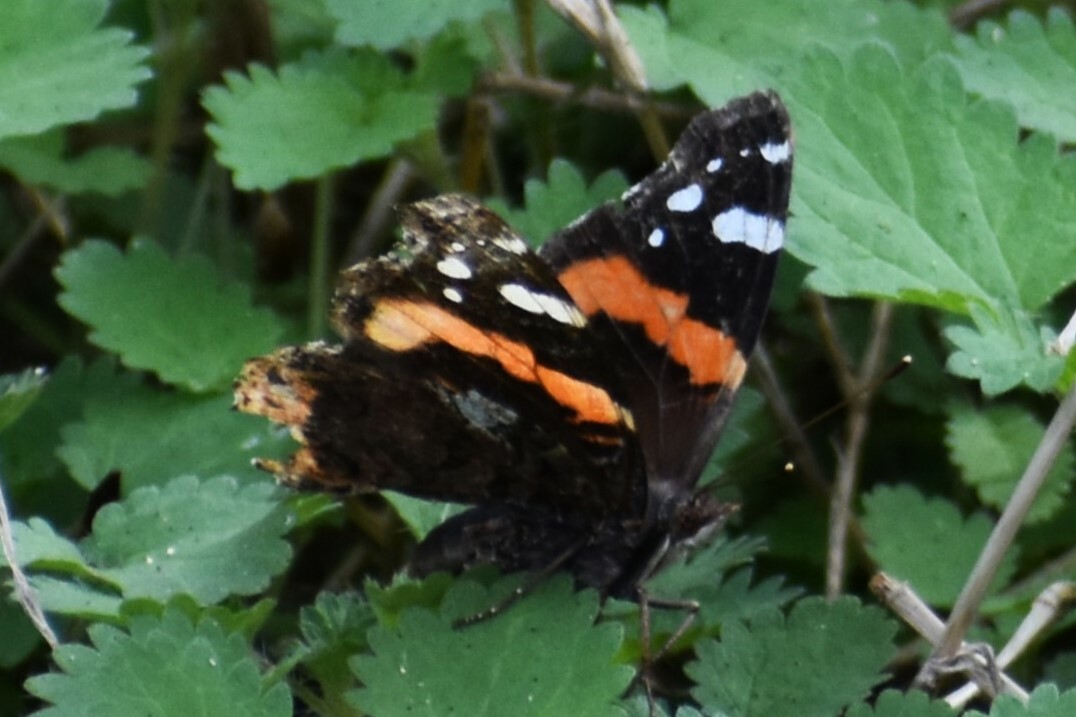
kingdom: Animalia
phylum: Arthropoda
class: Insecta
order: Lepidoptera
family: Nymphalidae
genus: Vanessa
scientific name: Vanessa atalanta
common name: Red admiral
